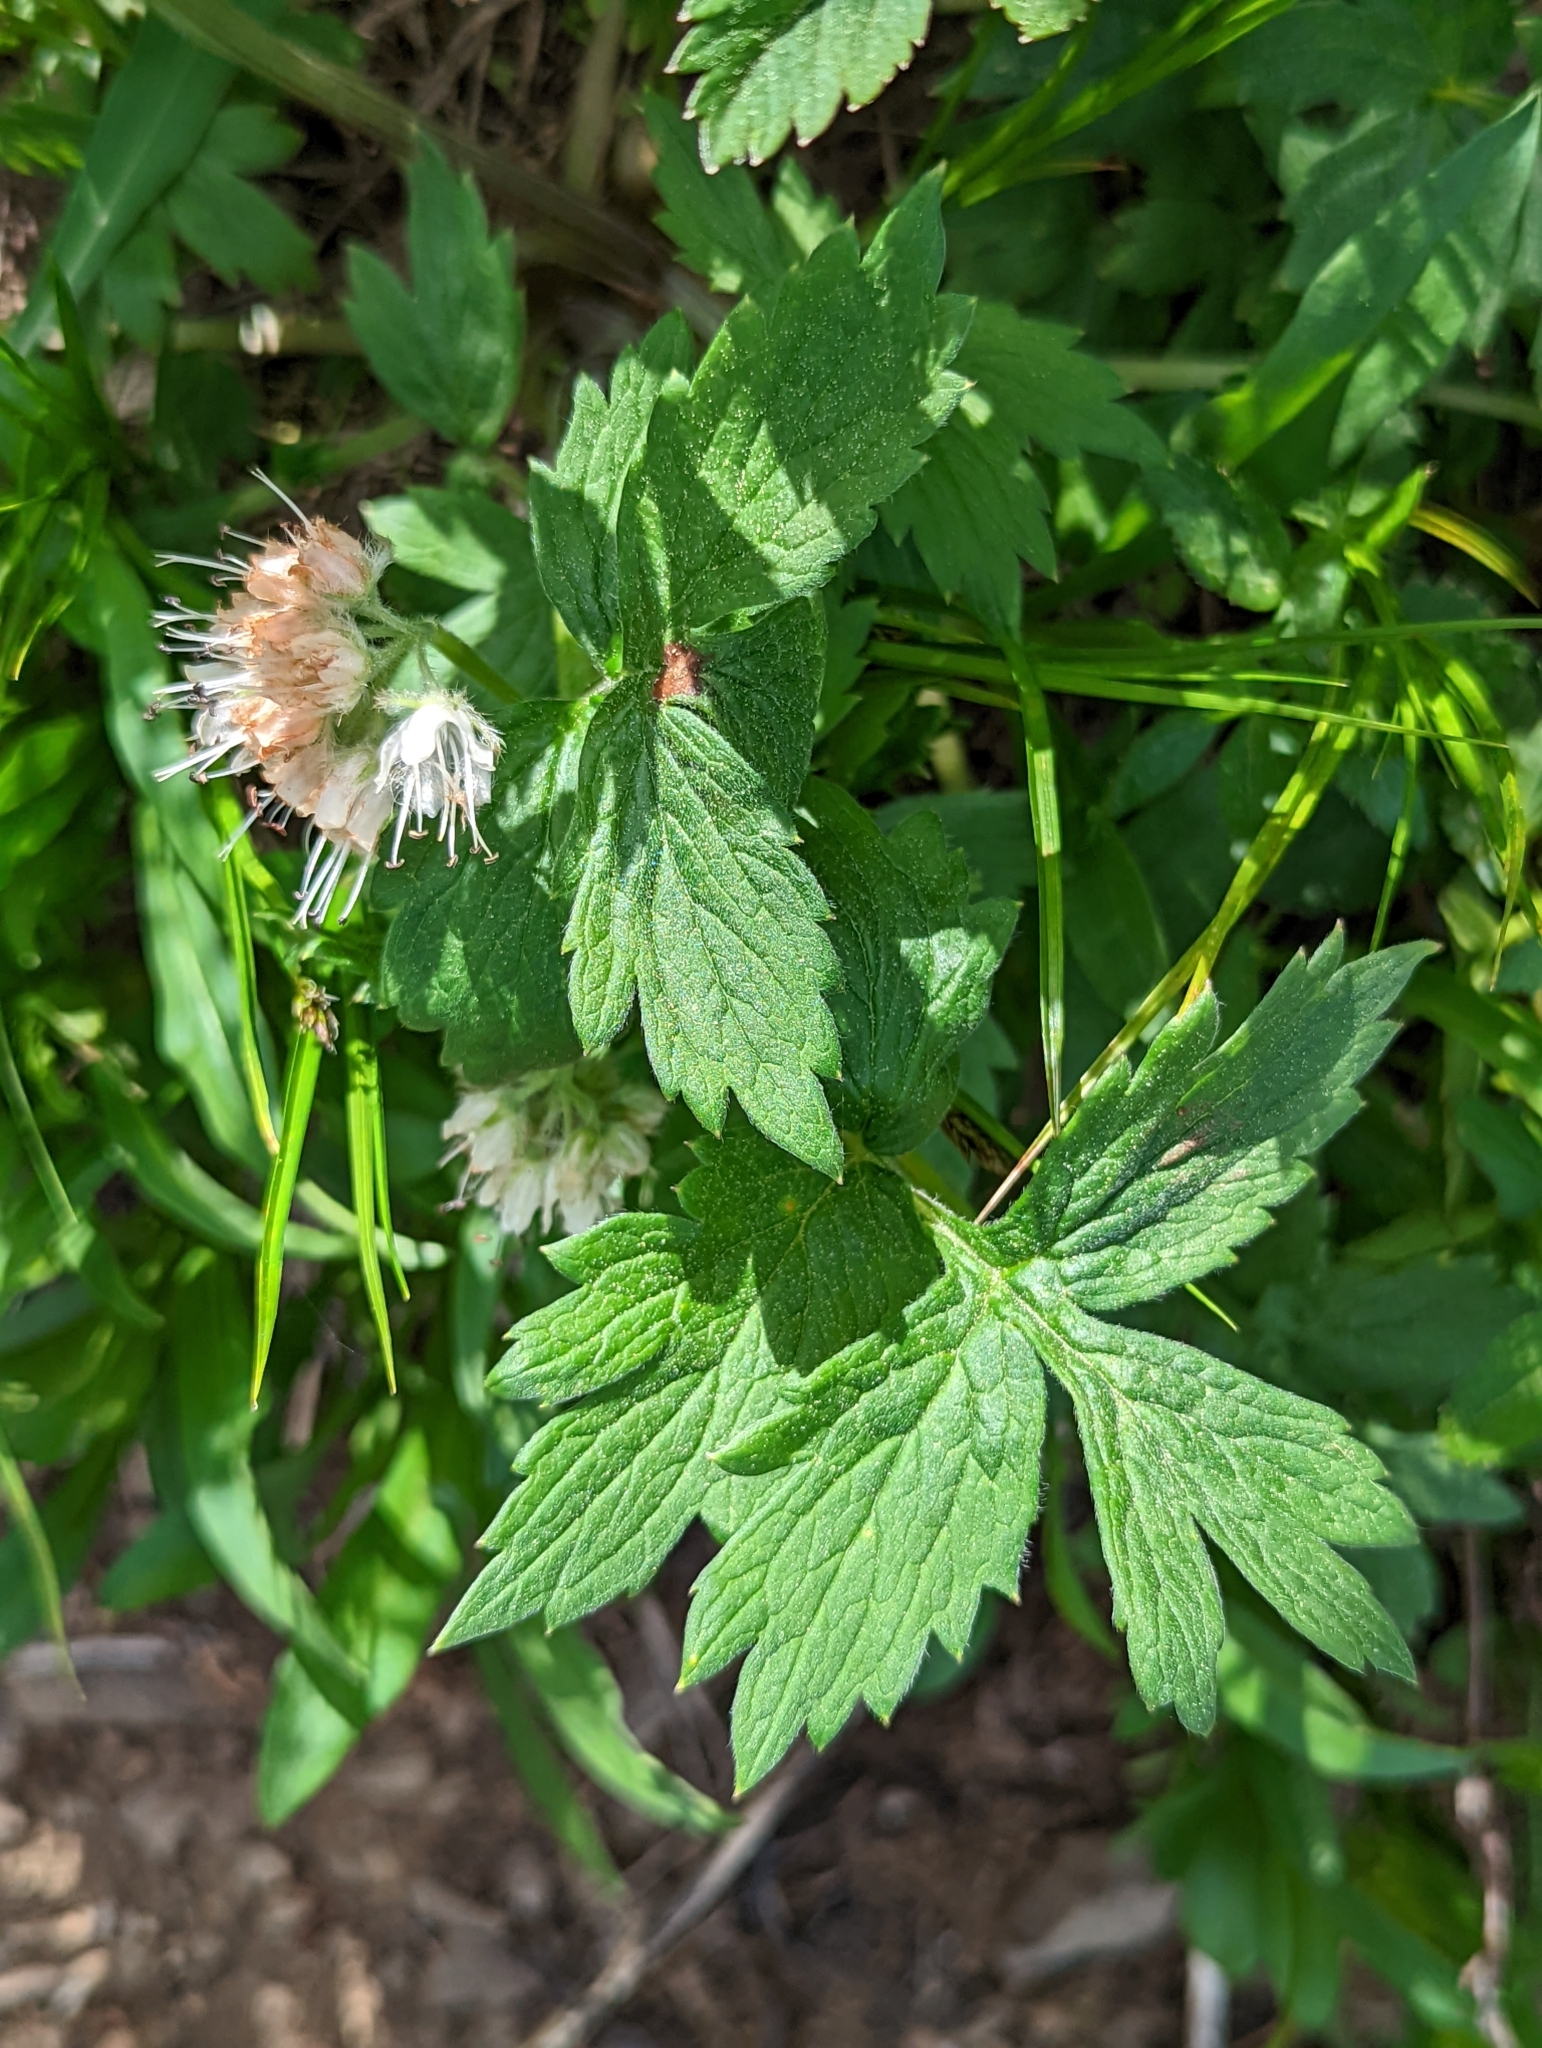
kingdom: Plantae
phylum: Tracheophyta
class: Magnoliopsida
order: Boraginales
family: Hydrophyllaceae
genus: Hydrophyllum
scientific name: Hydrophyllum tenuipes
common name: Pacific waterleaf
